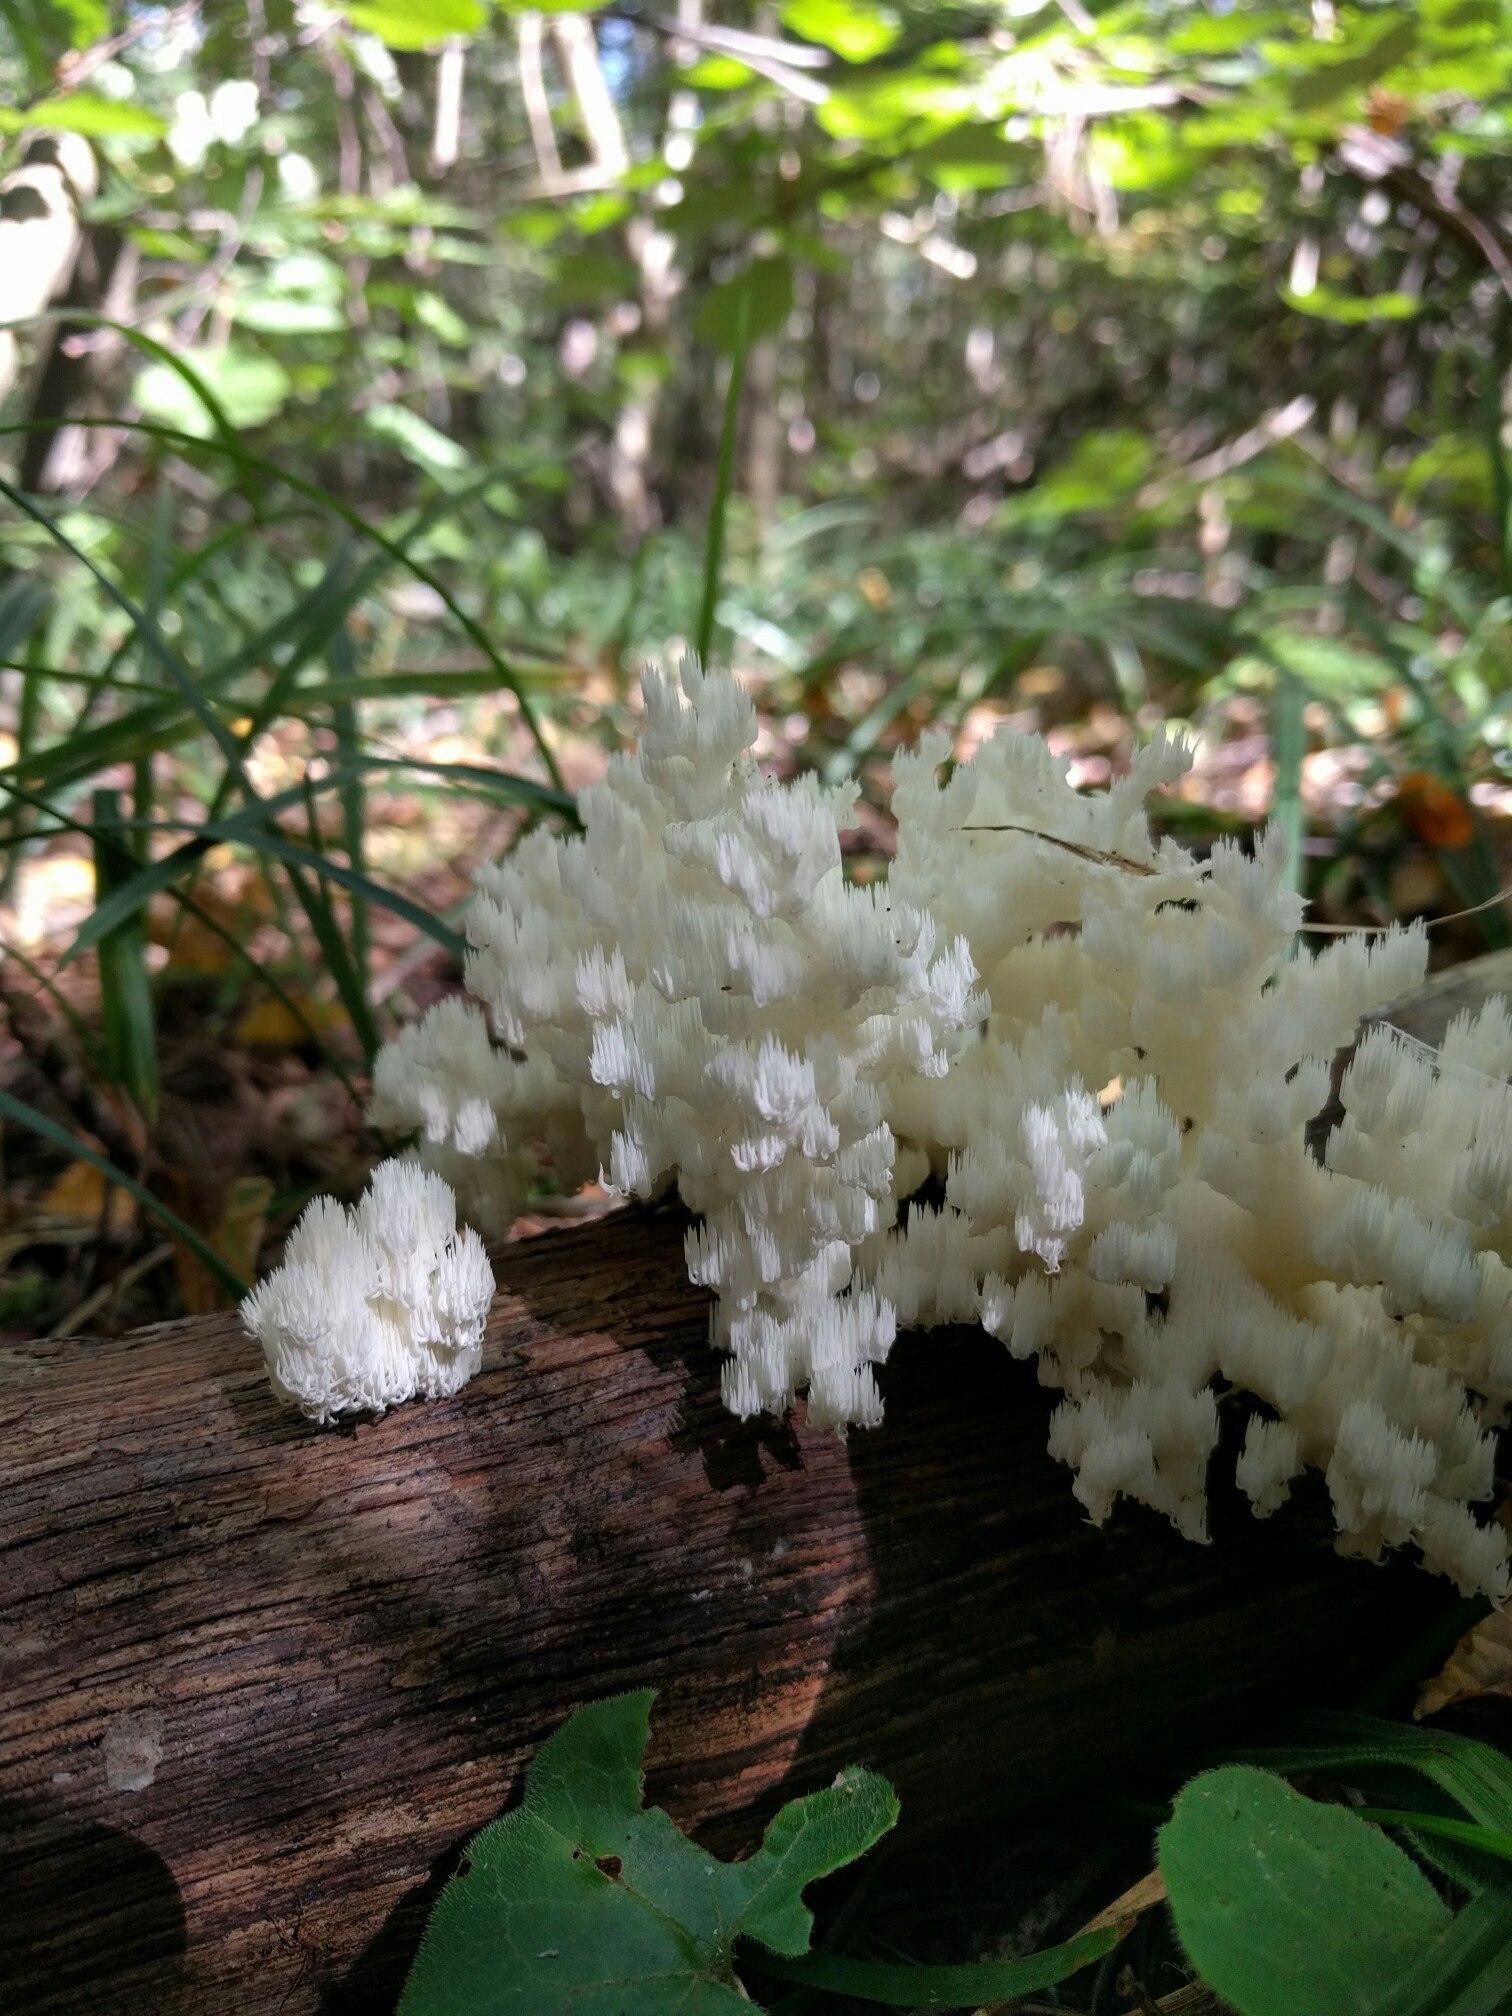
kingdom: Fungi
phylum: Basidiomycota
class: Agaricomycetes
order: Russulales
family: Hericiaceae
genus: Hericium
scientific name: Hericium coralloides
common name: Coral tooth
